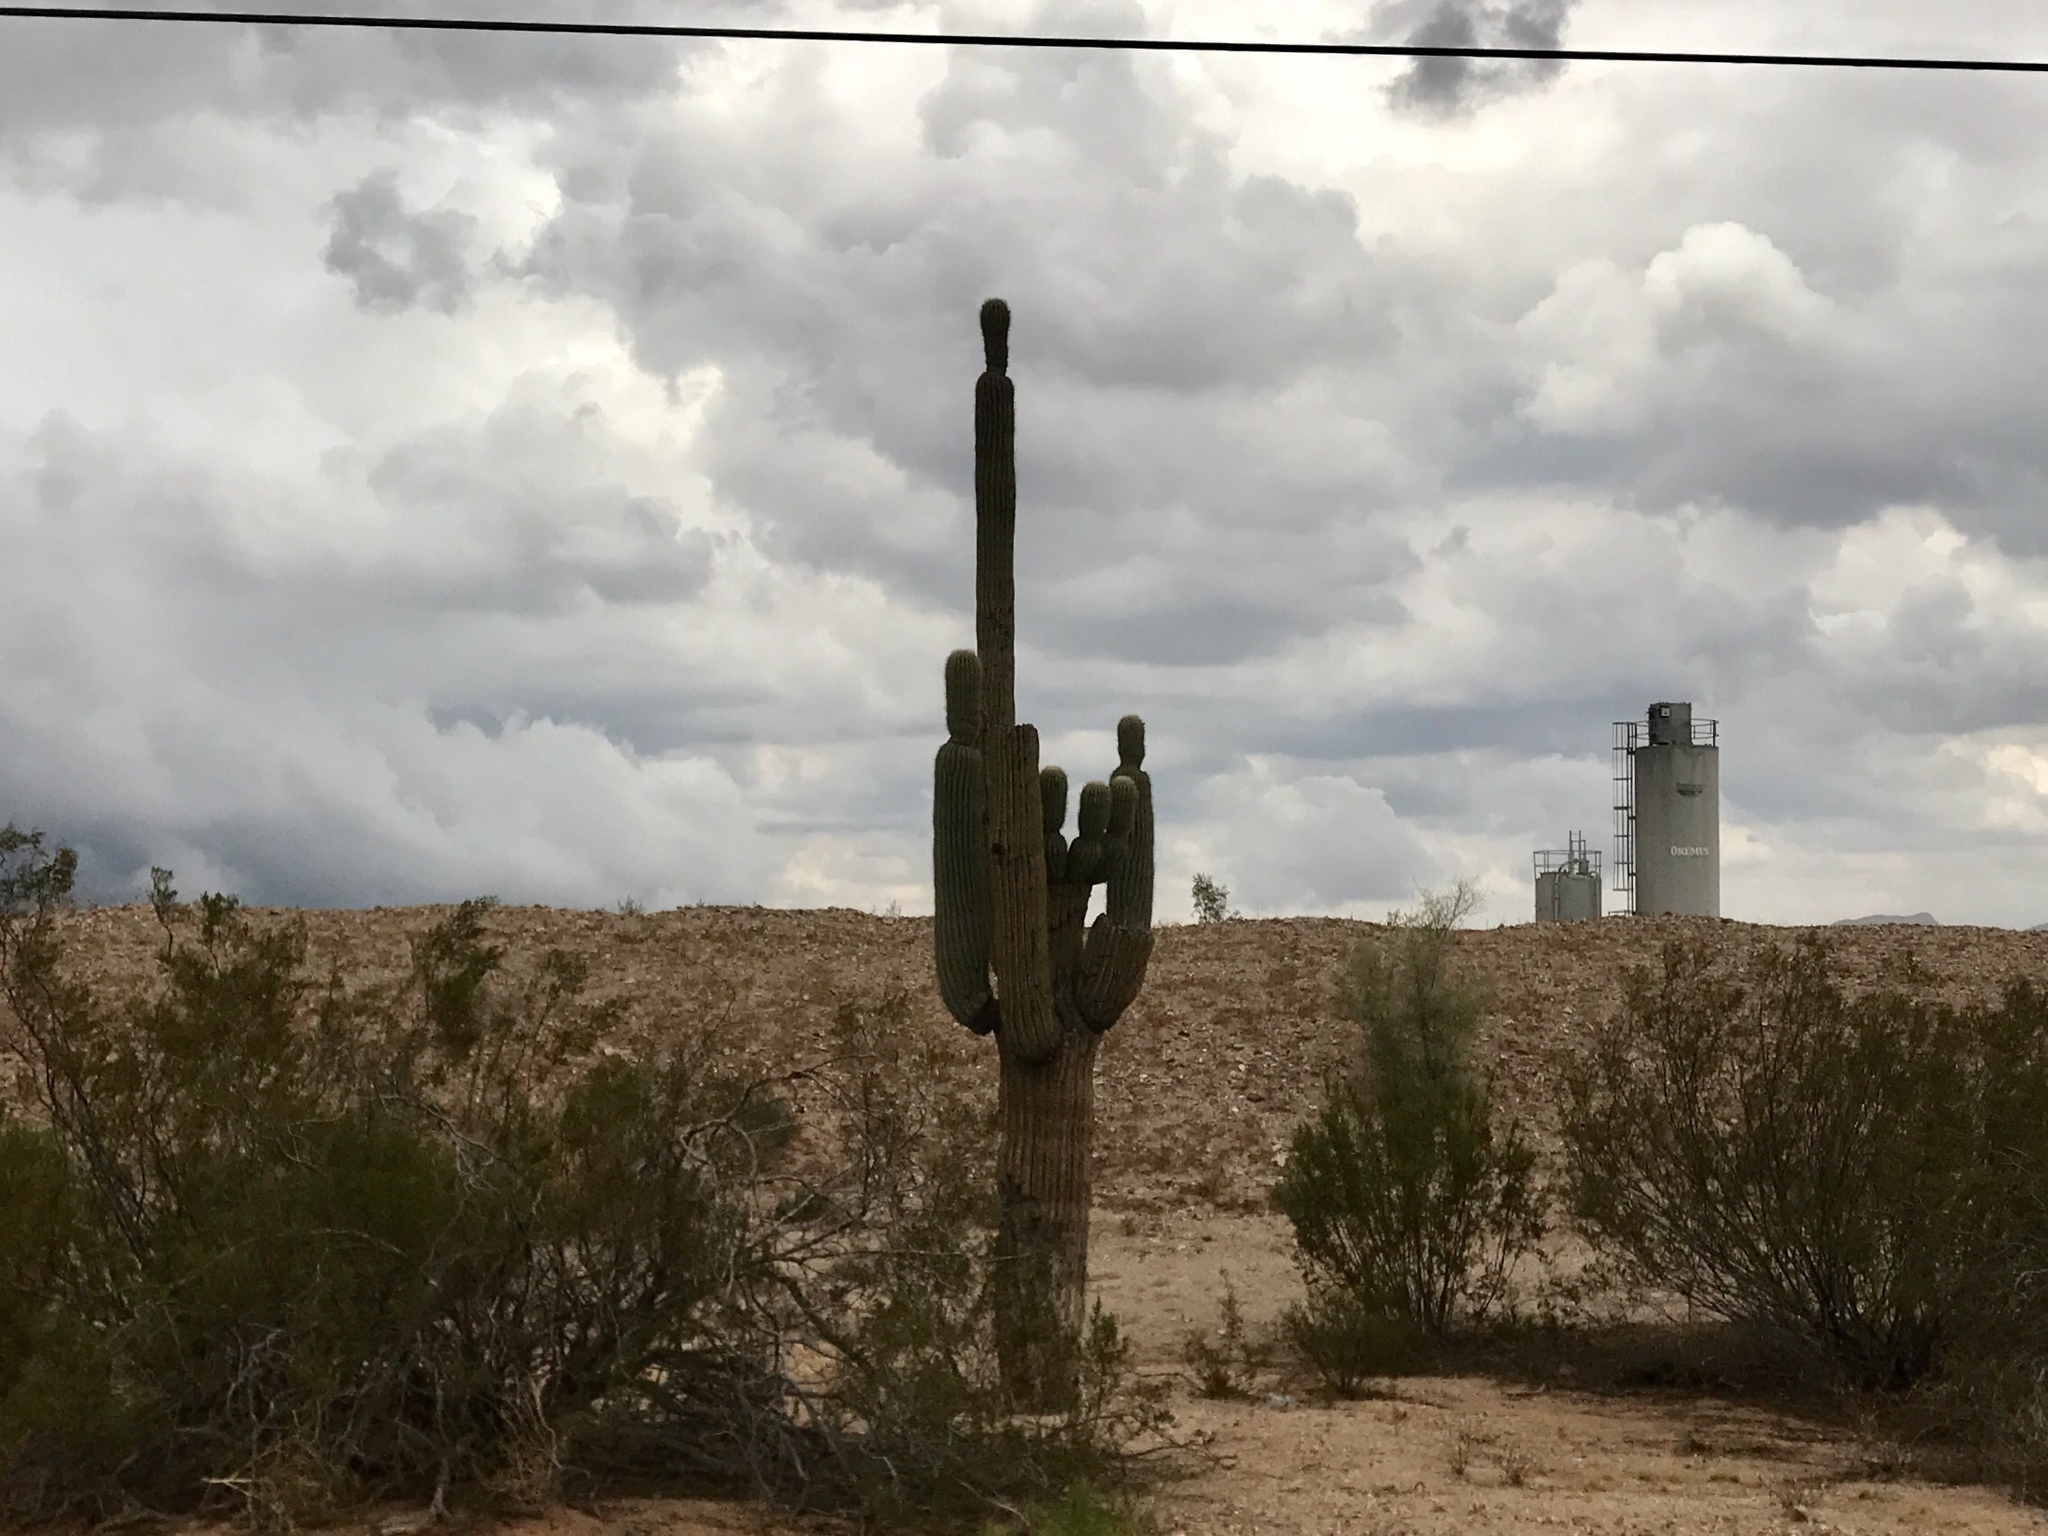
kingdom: Plantae
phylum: Tracheophyta
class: Magnoliopsida
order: Caryophyllales
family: Cactaceae
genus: Carnegiea
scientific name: Carnegiea gigantea
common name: Saguaro
